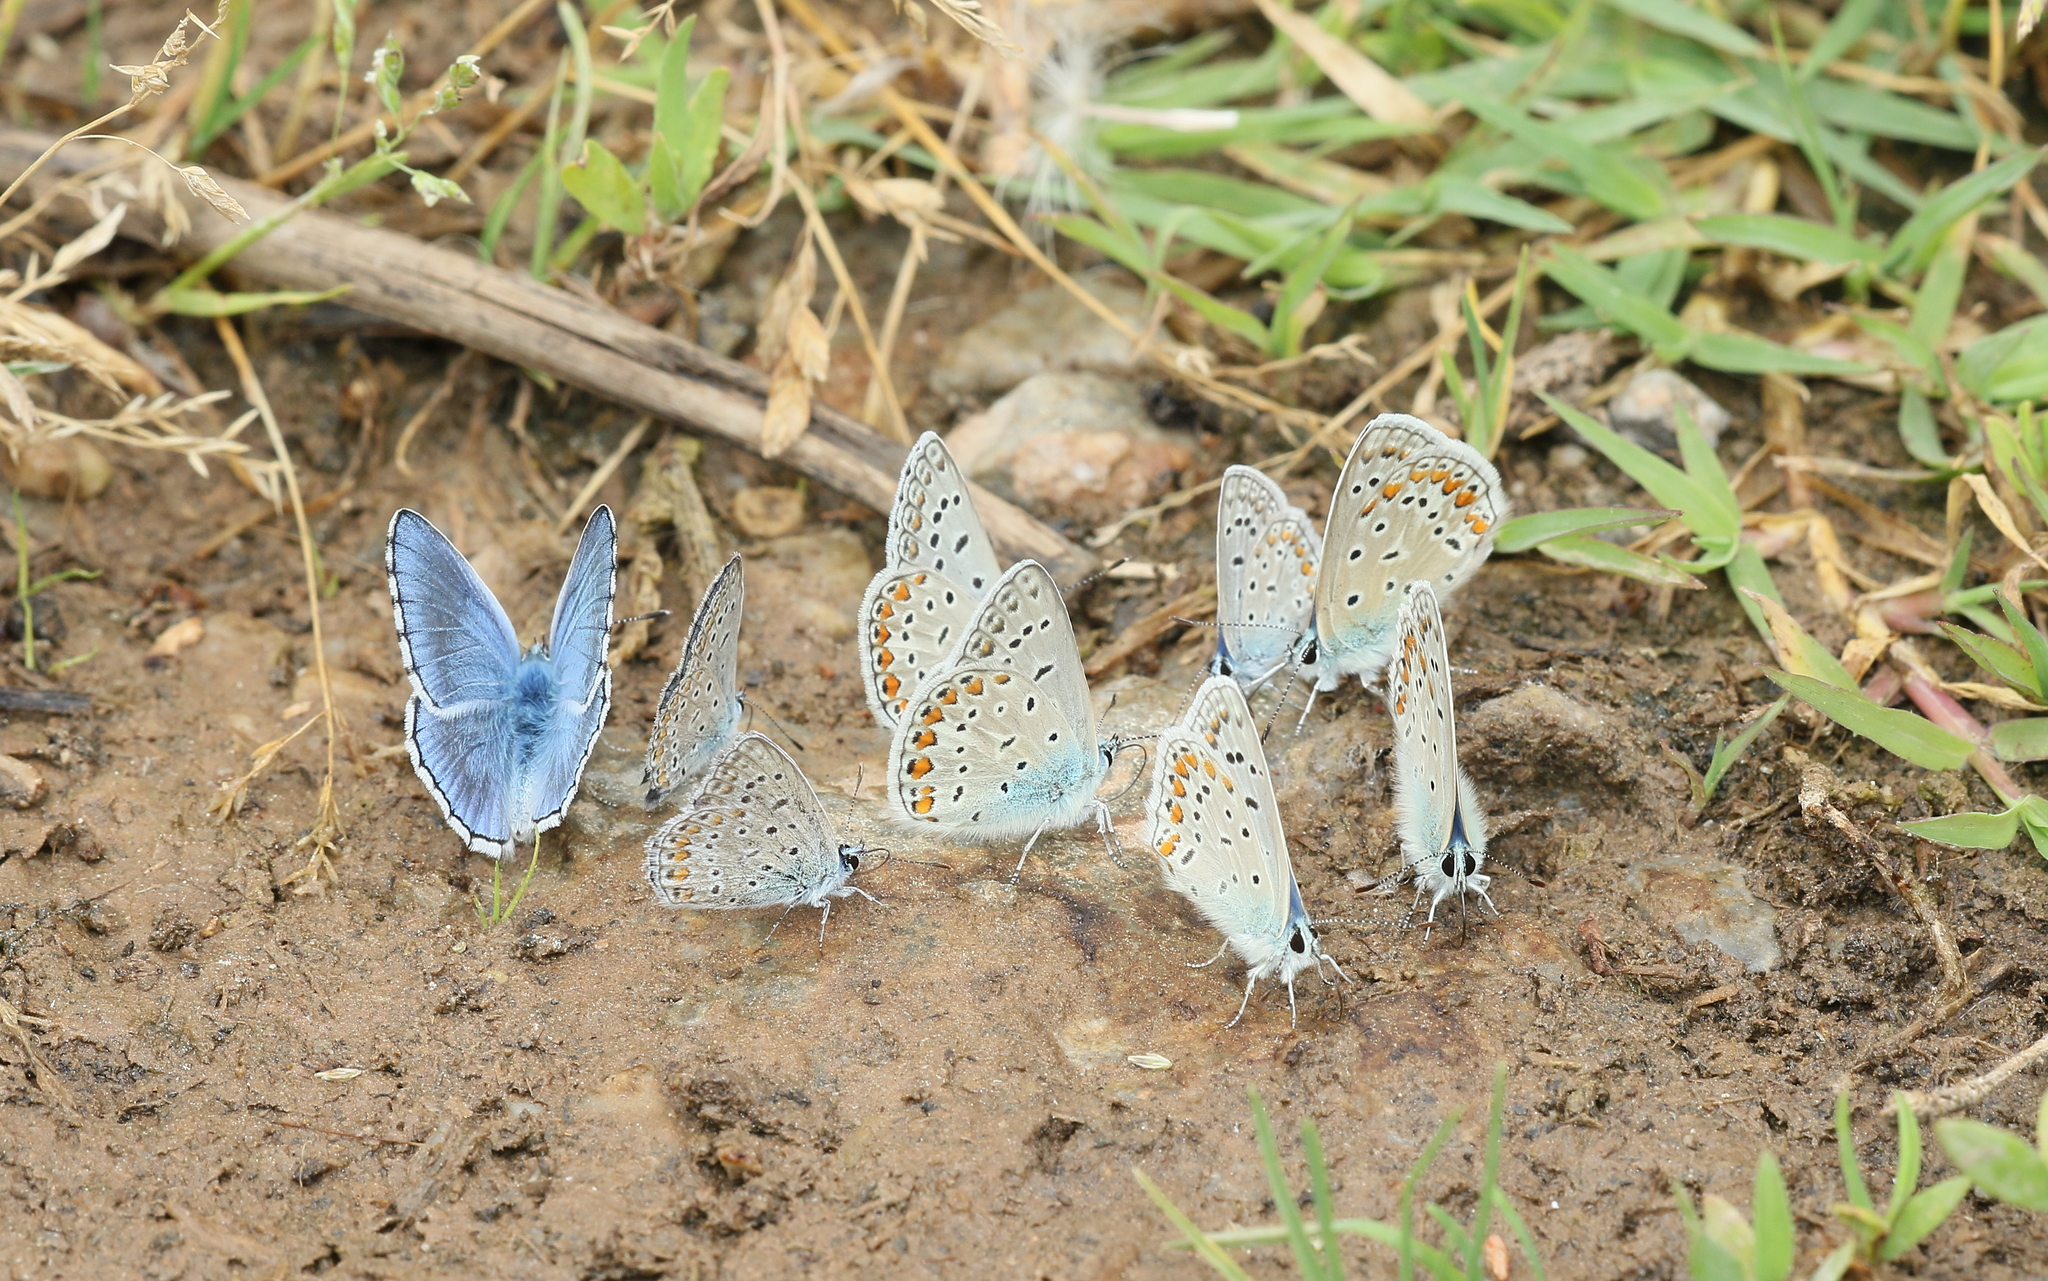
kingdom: Animalia
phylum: Arthropoda
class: Insecta
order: Lepidoptera
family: Lycaenidae
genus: Polyommatus
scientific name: Polyommatus icarus
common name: Common blue
